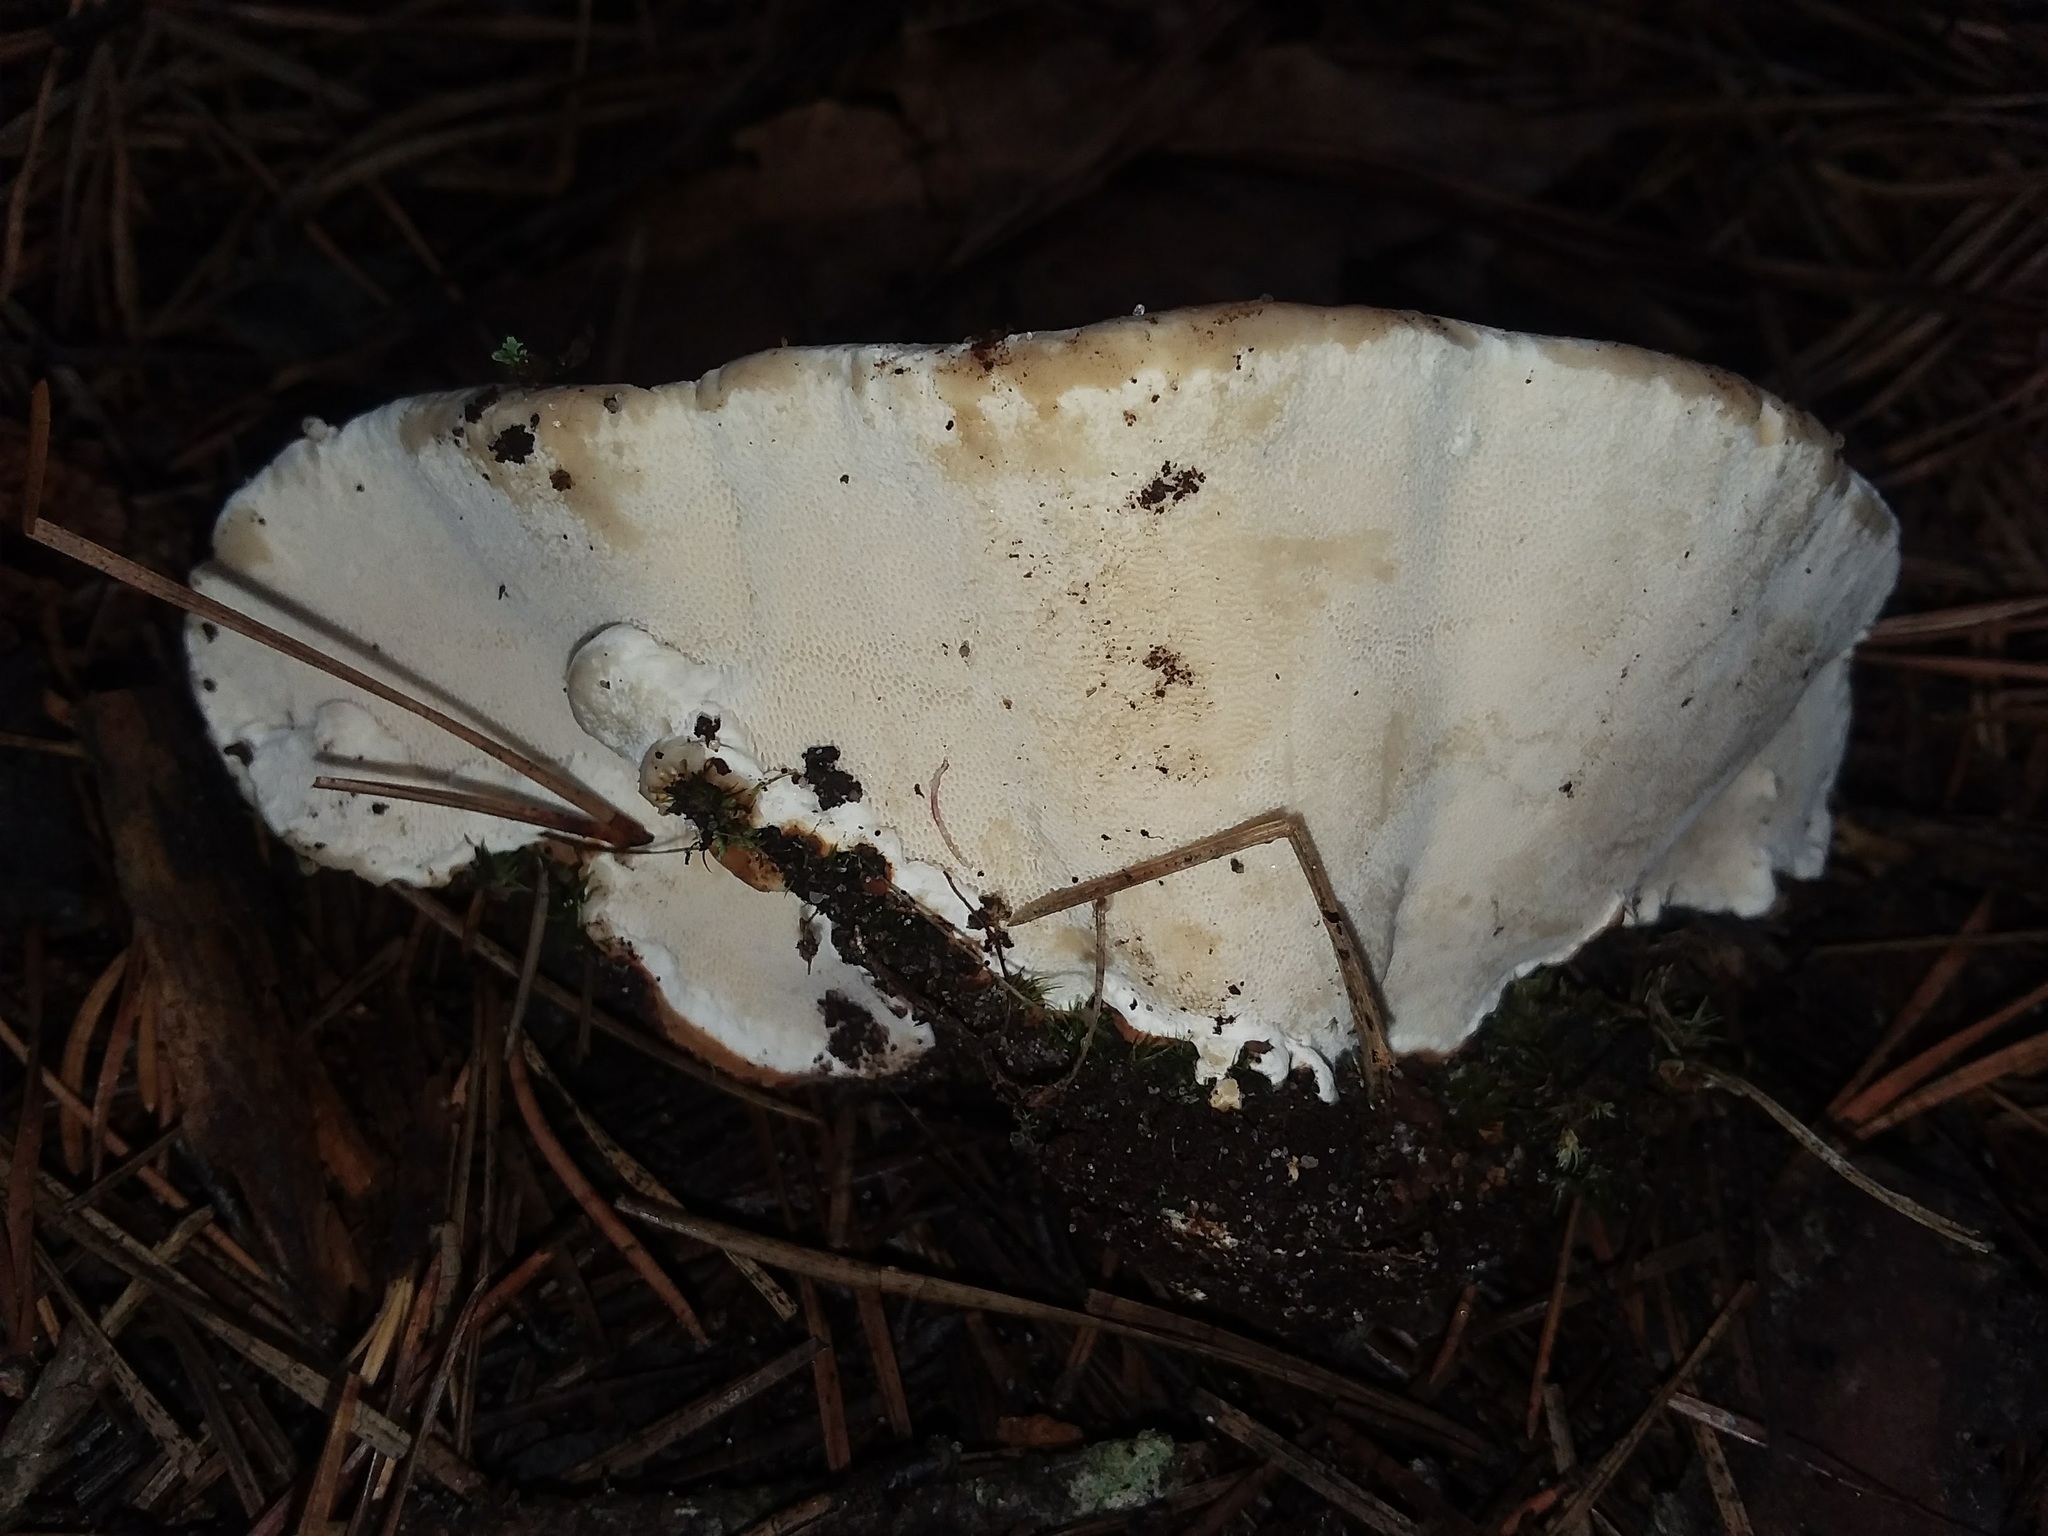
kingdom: Fungi
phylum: Basidiomycota
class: Agaricomycetes
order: Russulales
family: Bondarzewiaceae
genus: Heterobasidion
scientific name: Heterobasidion annosum
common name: Root rot
